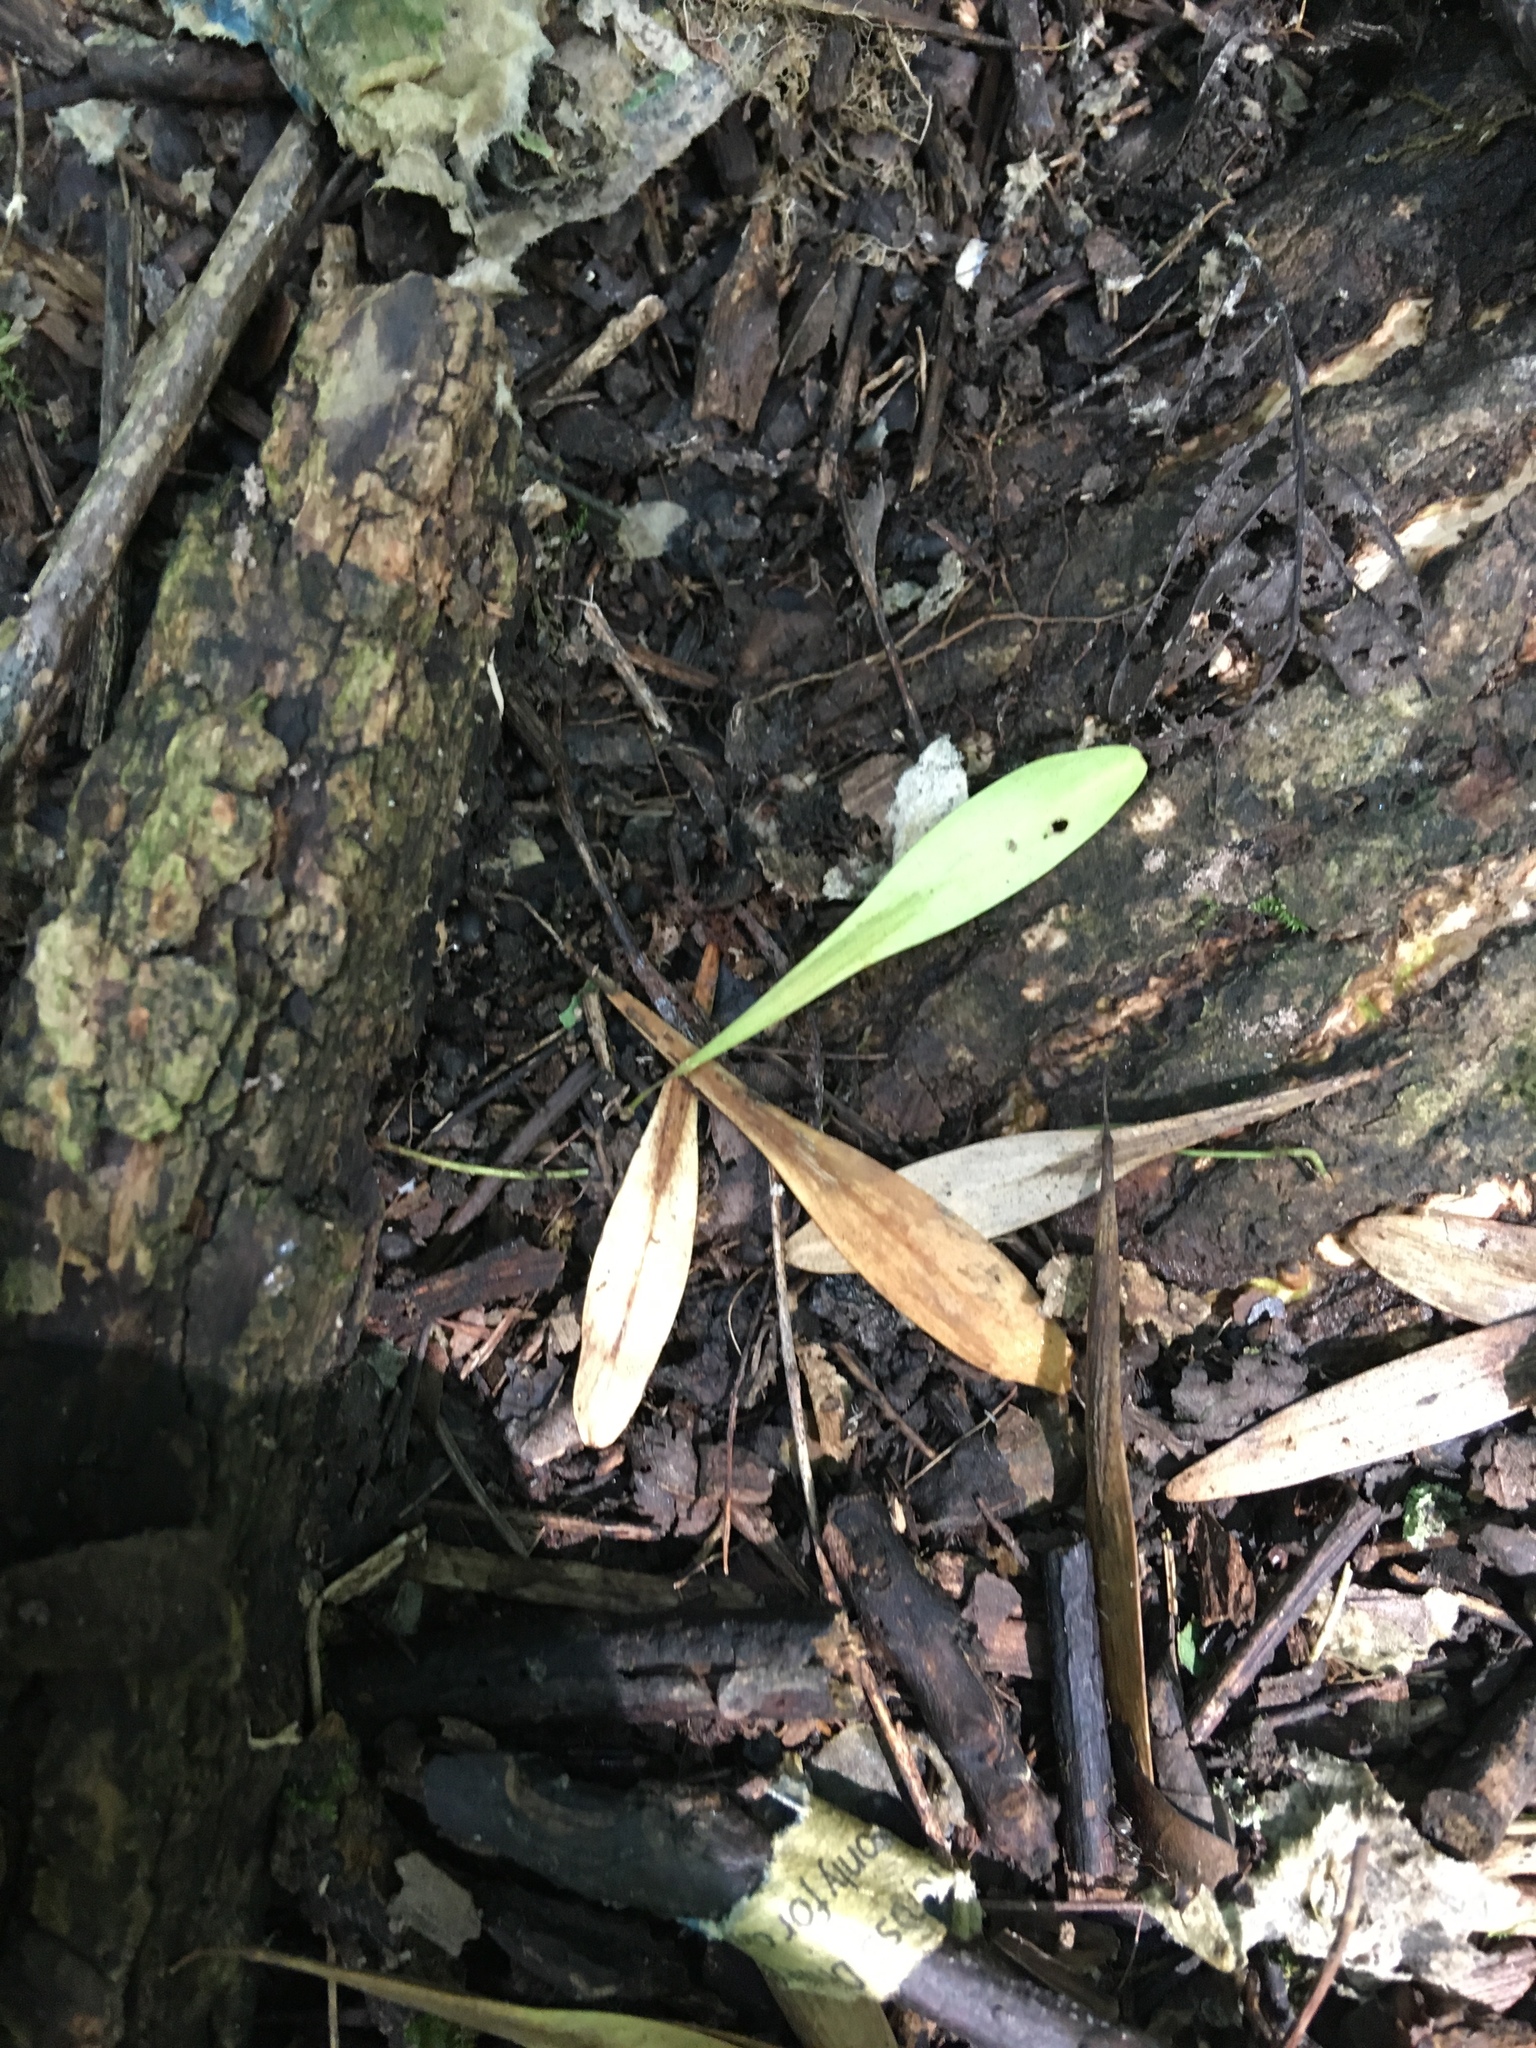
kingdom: Plantae
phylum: Tracheophyta
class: Magnoliopsida
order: Lamiales
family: Oleaceae
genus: Fraxinus
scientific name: Fraxinus profunda
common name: Pumpkin ash
